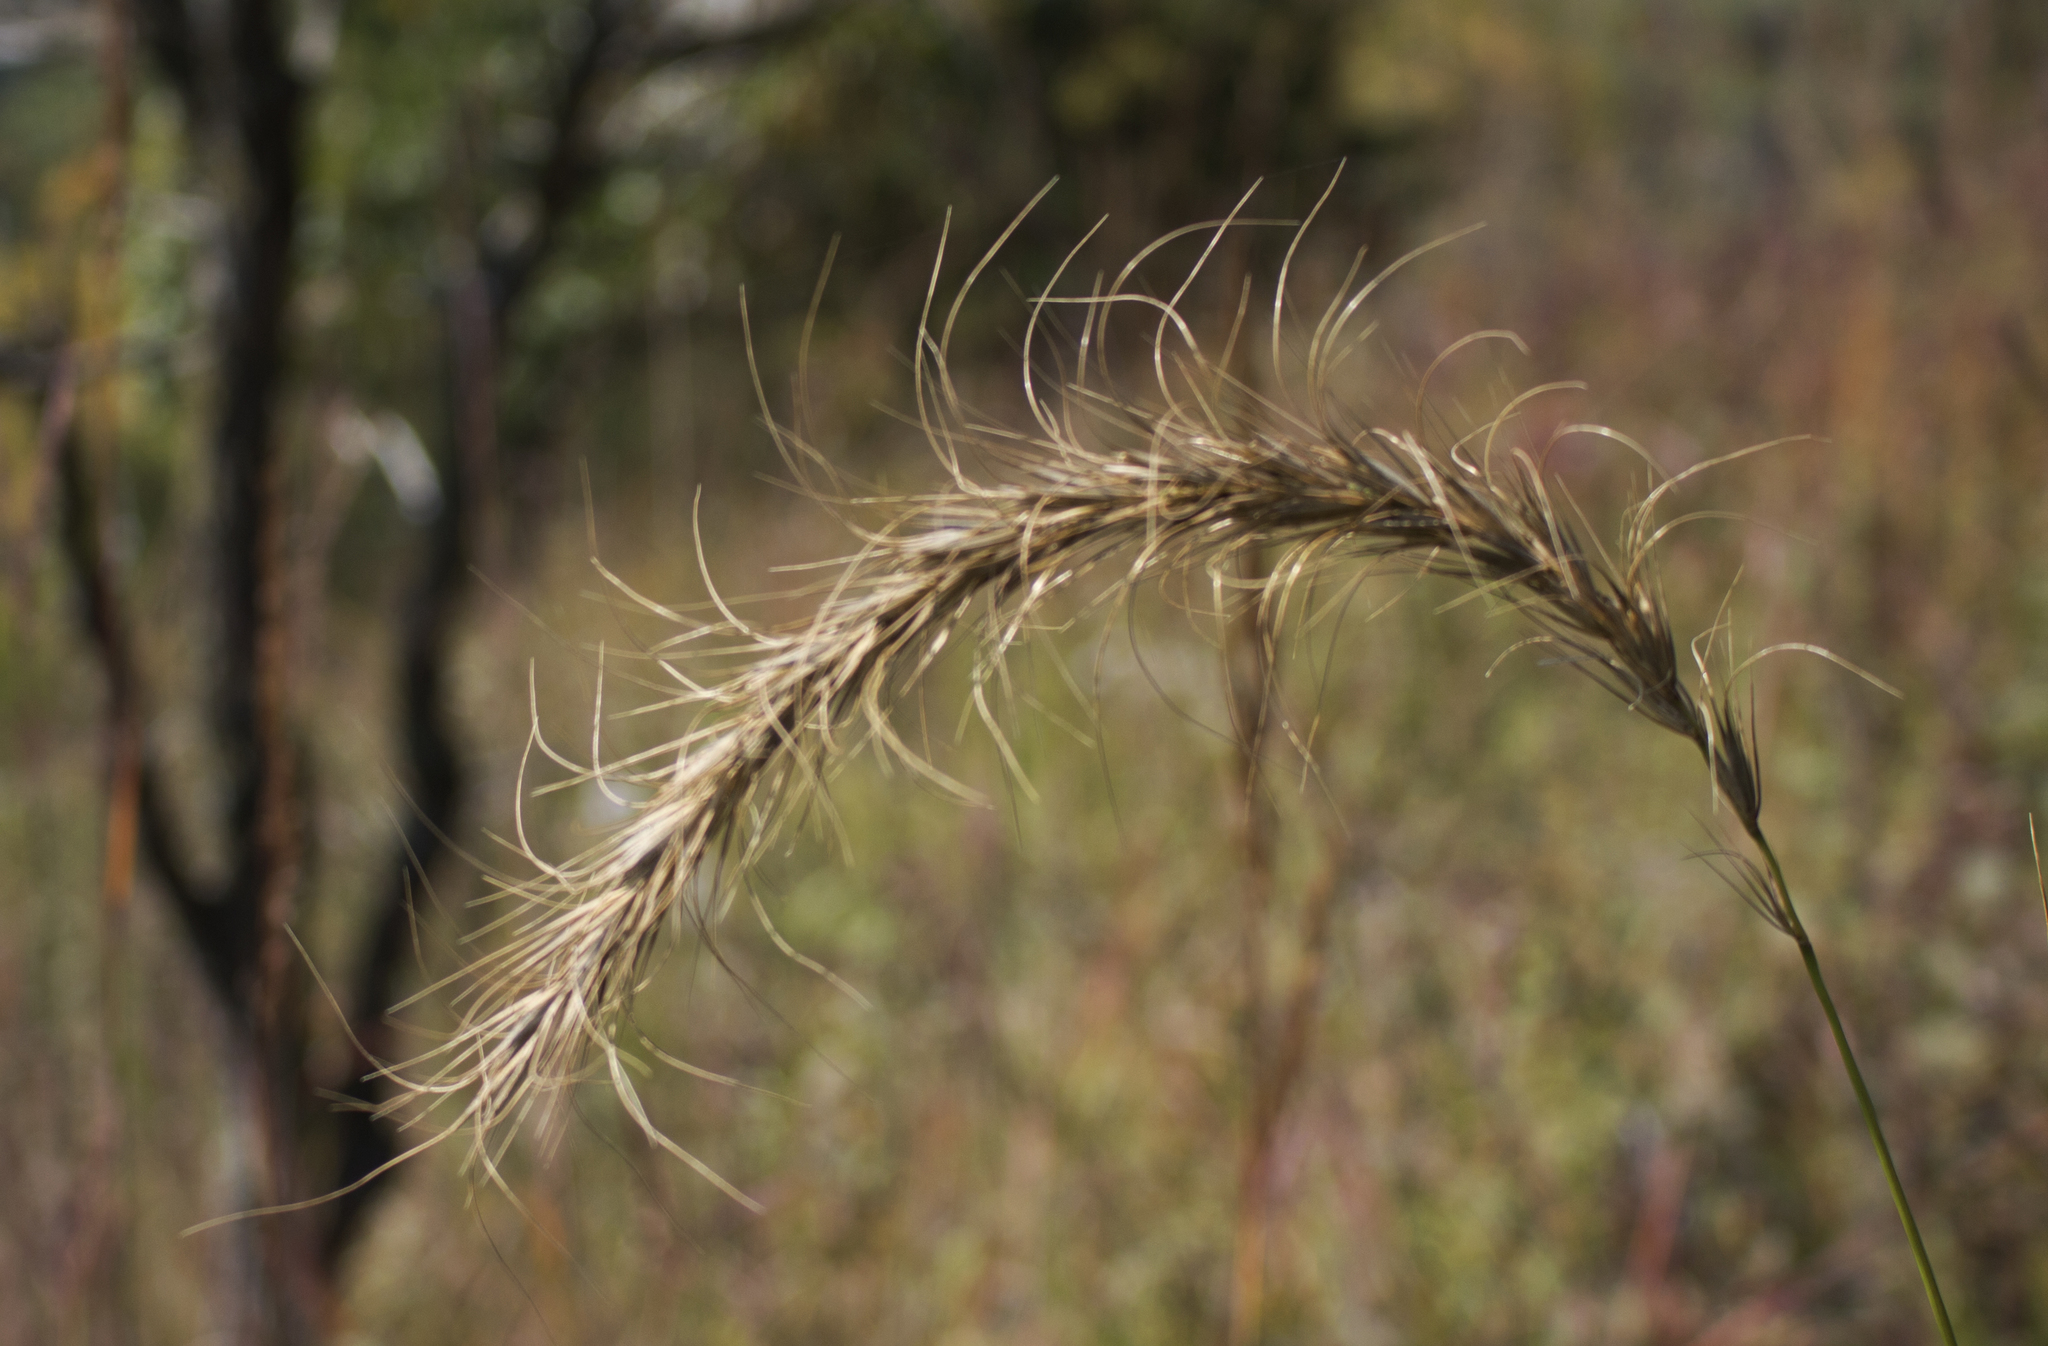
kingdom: Plantae
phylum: Tracheophyta
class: Liliopsida
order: Poales
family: Poaceae
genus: Elymus
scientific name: Elymus canadensis
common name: Canada wild rye
